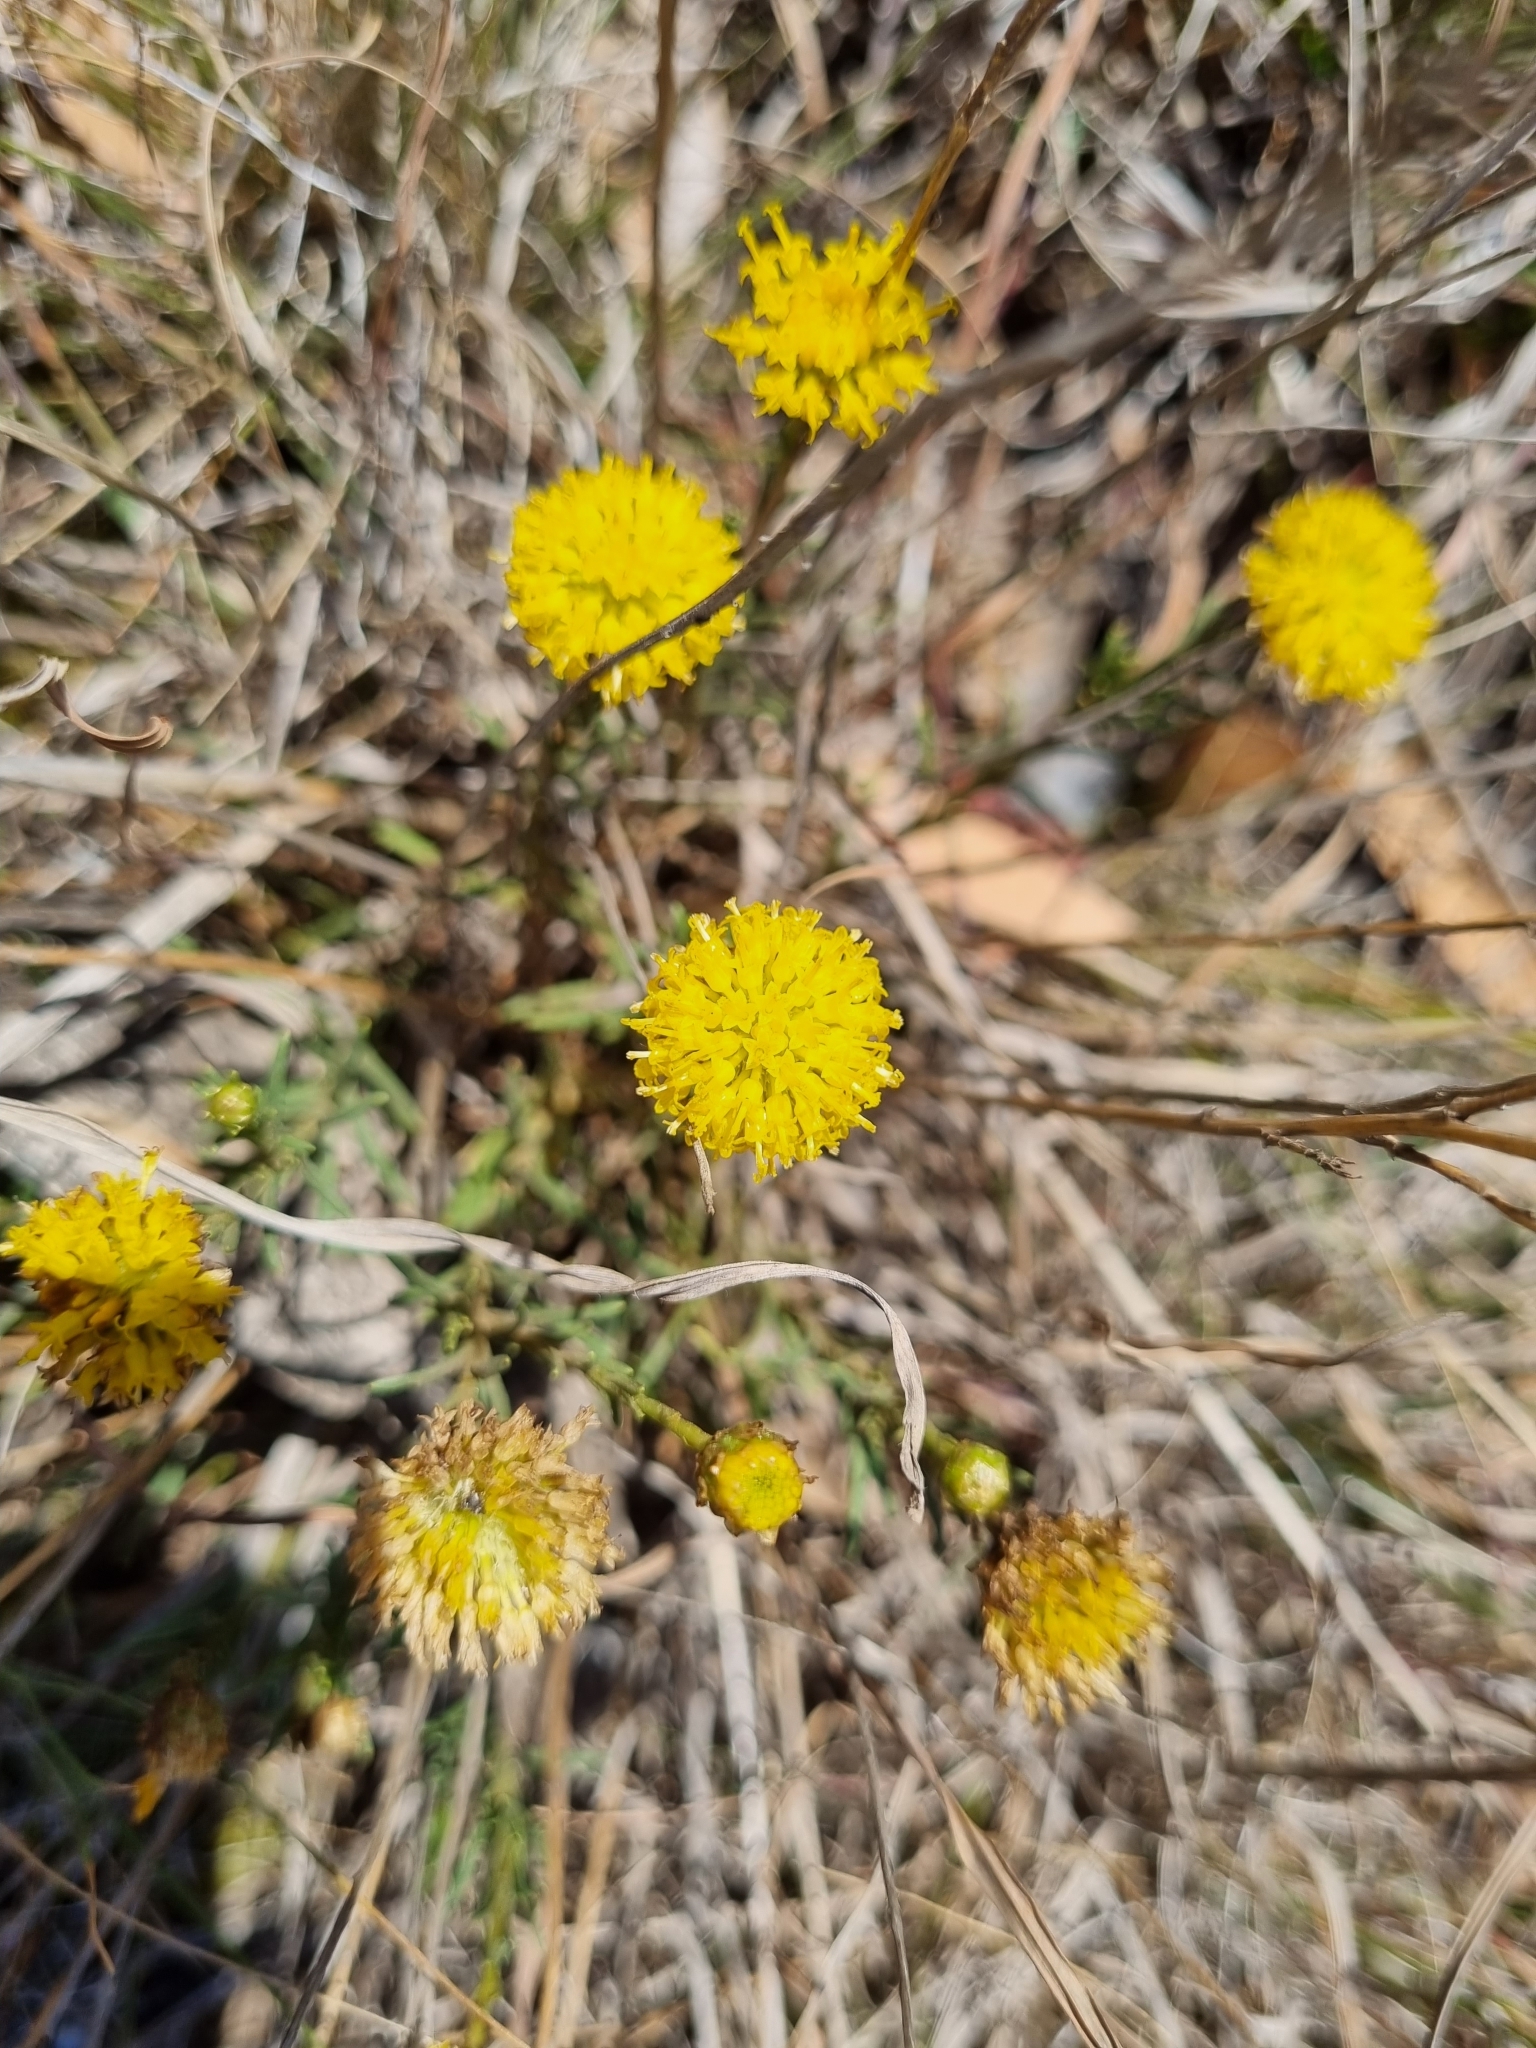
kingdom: Plantae
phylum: Tracheophyta
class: Magnoliopsida
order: Asterales
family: Asteraceae
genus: Rutidosis
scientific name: Rutidosis leptorrhynchoides
